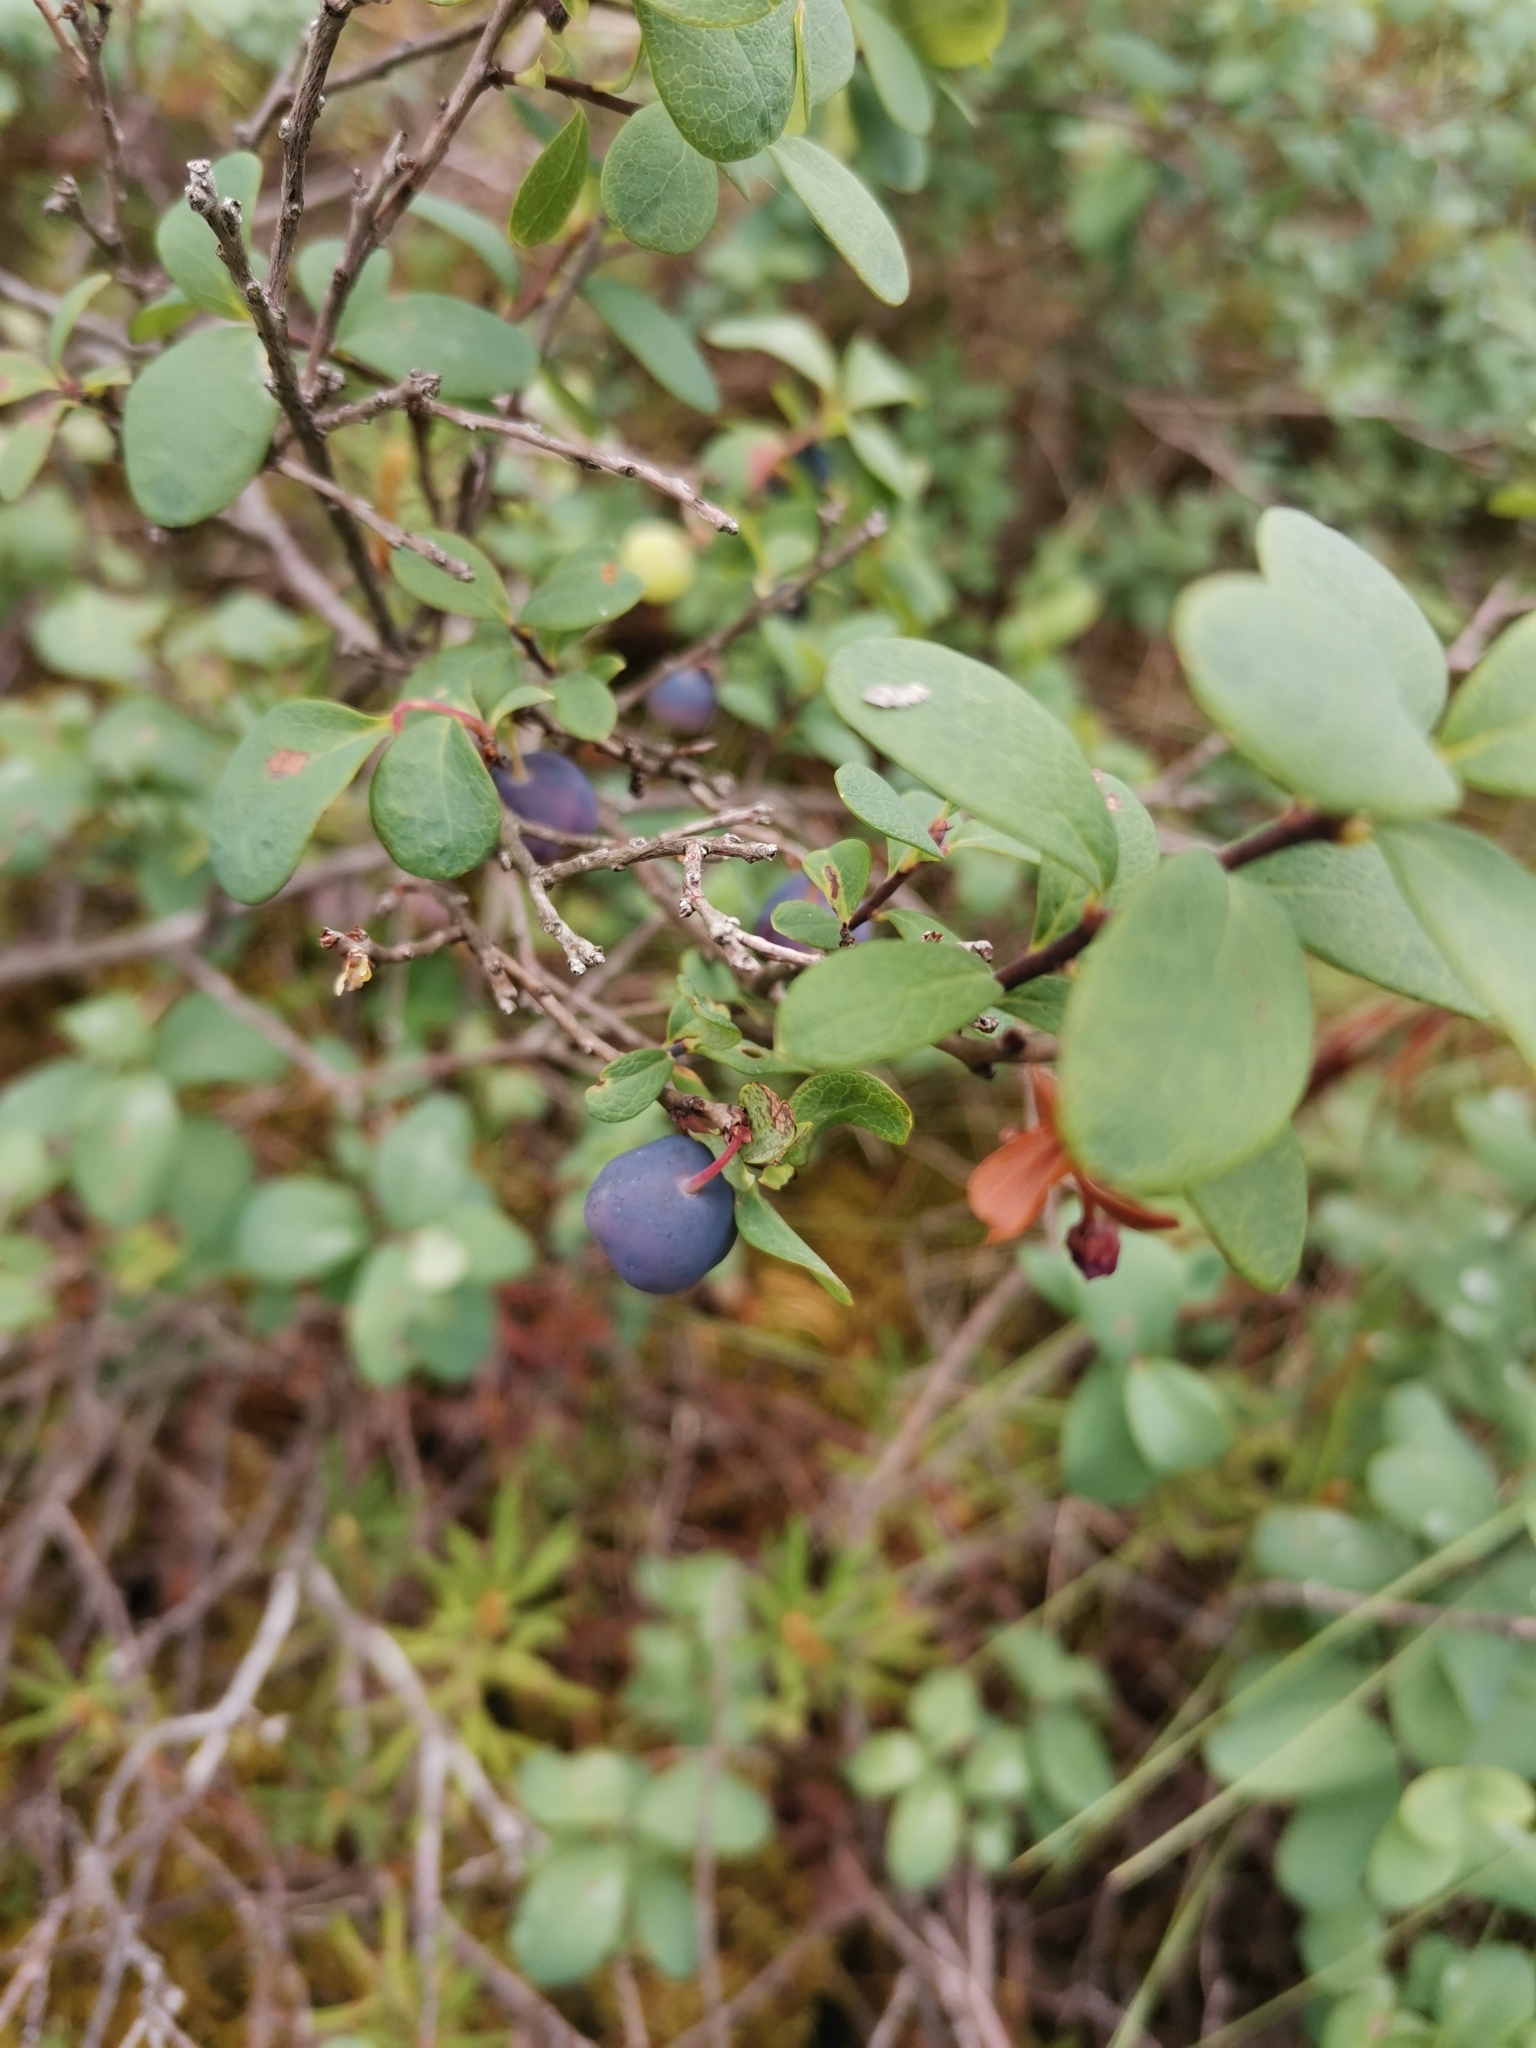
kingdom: Plantae
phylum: Tracheophyta
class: Magnoliopsida
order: Ericales
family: Ericaceae
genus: Vaccinium
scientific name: Vaccinium uliginosum
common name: Bog bilberry
